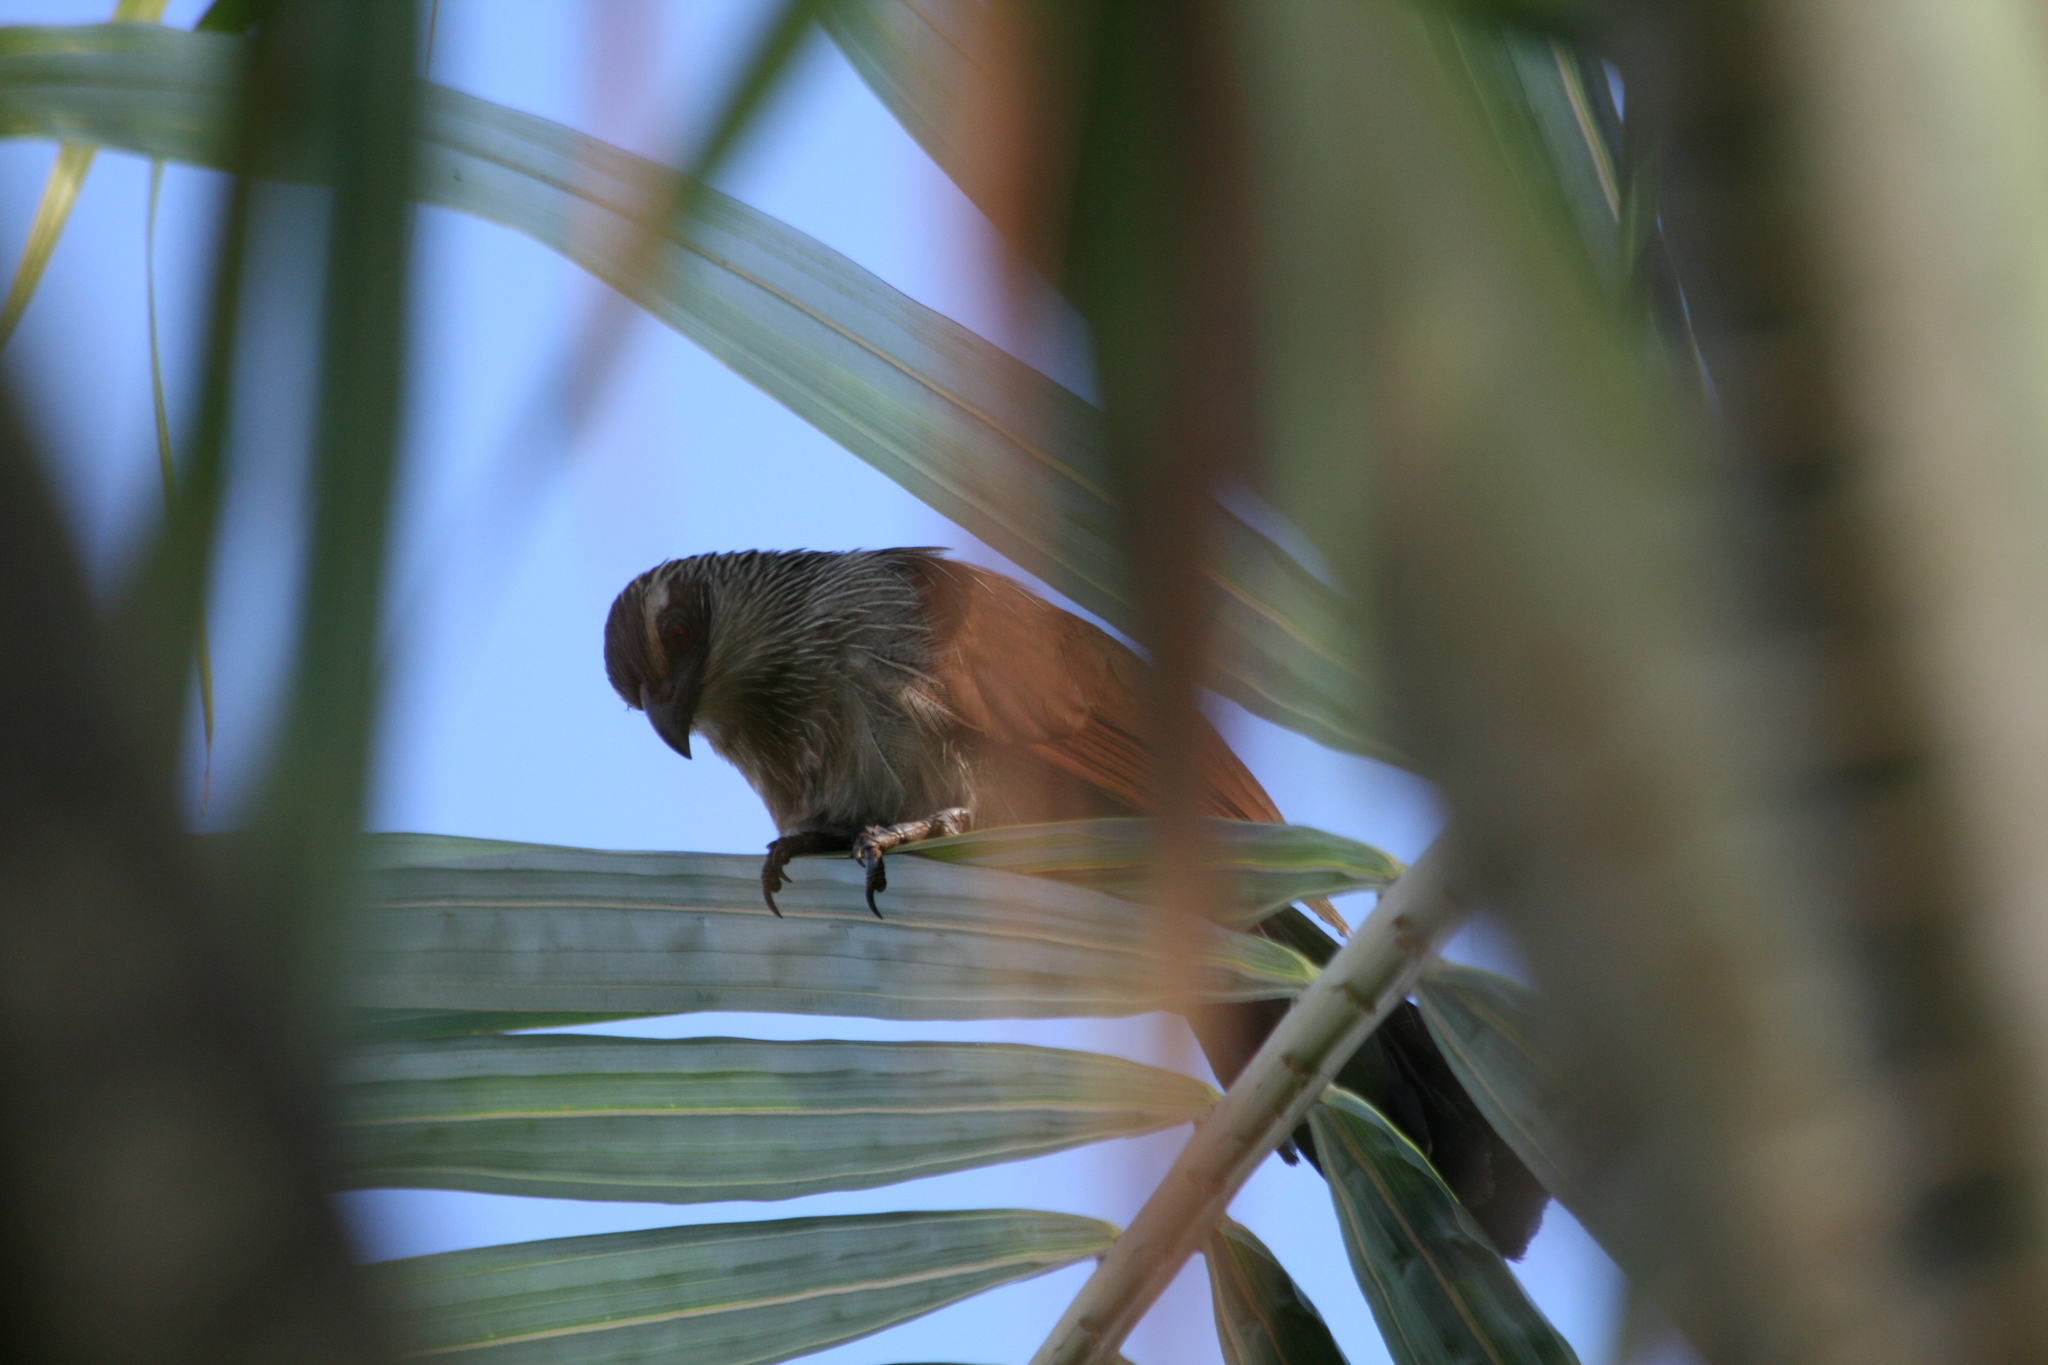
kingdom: Animalia
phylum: Chordata
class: Aves
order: Cuculiformes
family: Cuculidae
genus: Centropus
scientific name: Centropus superciliosus
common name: White-browed coucal
